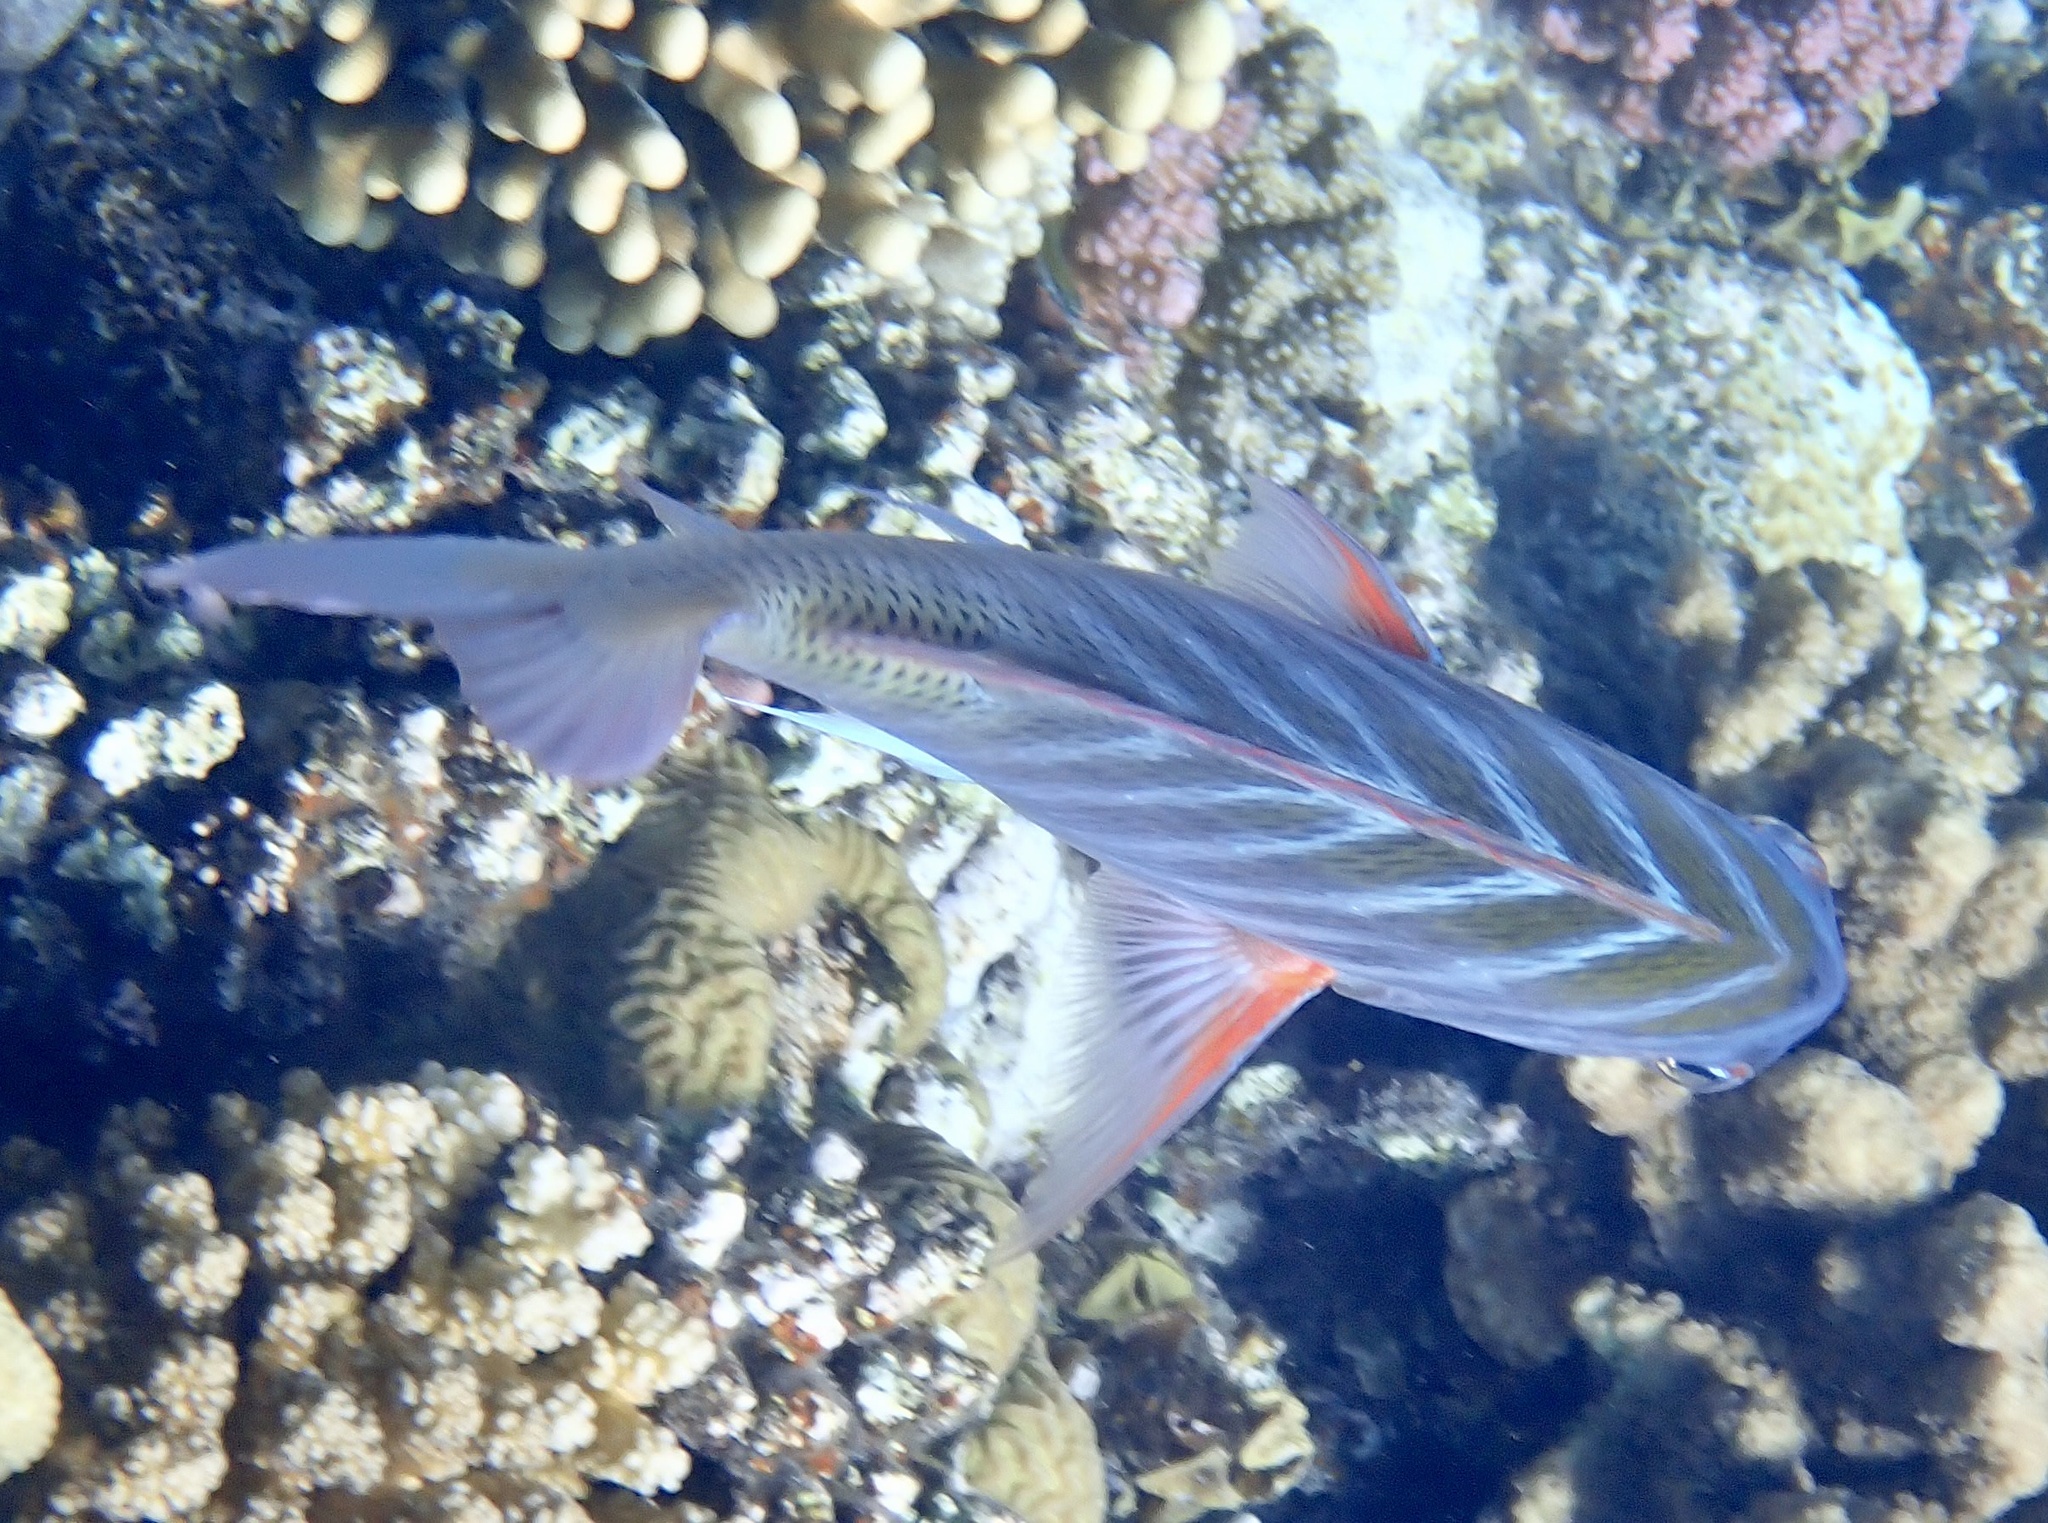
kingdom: Animalia
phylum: Chordata
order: Perciformes
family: Lethrinidae
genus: Lethrinus
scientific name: Lethrinus mahsena
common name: Sky emperor
